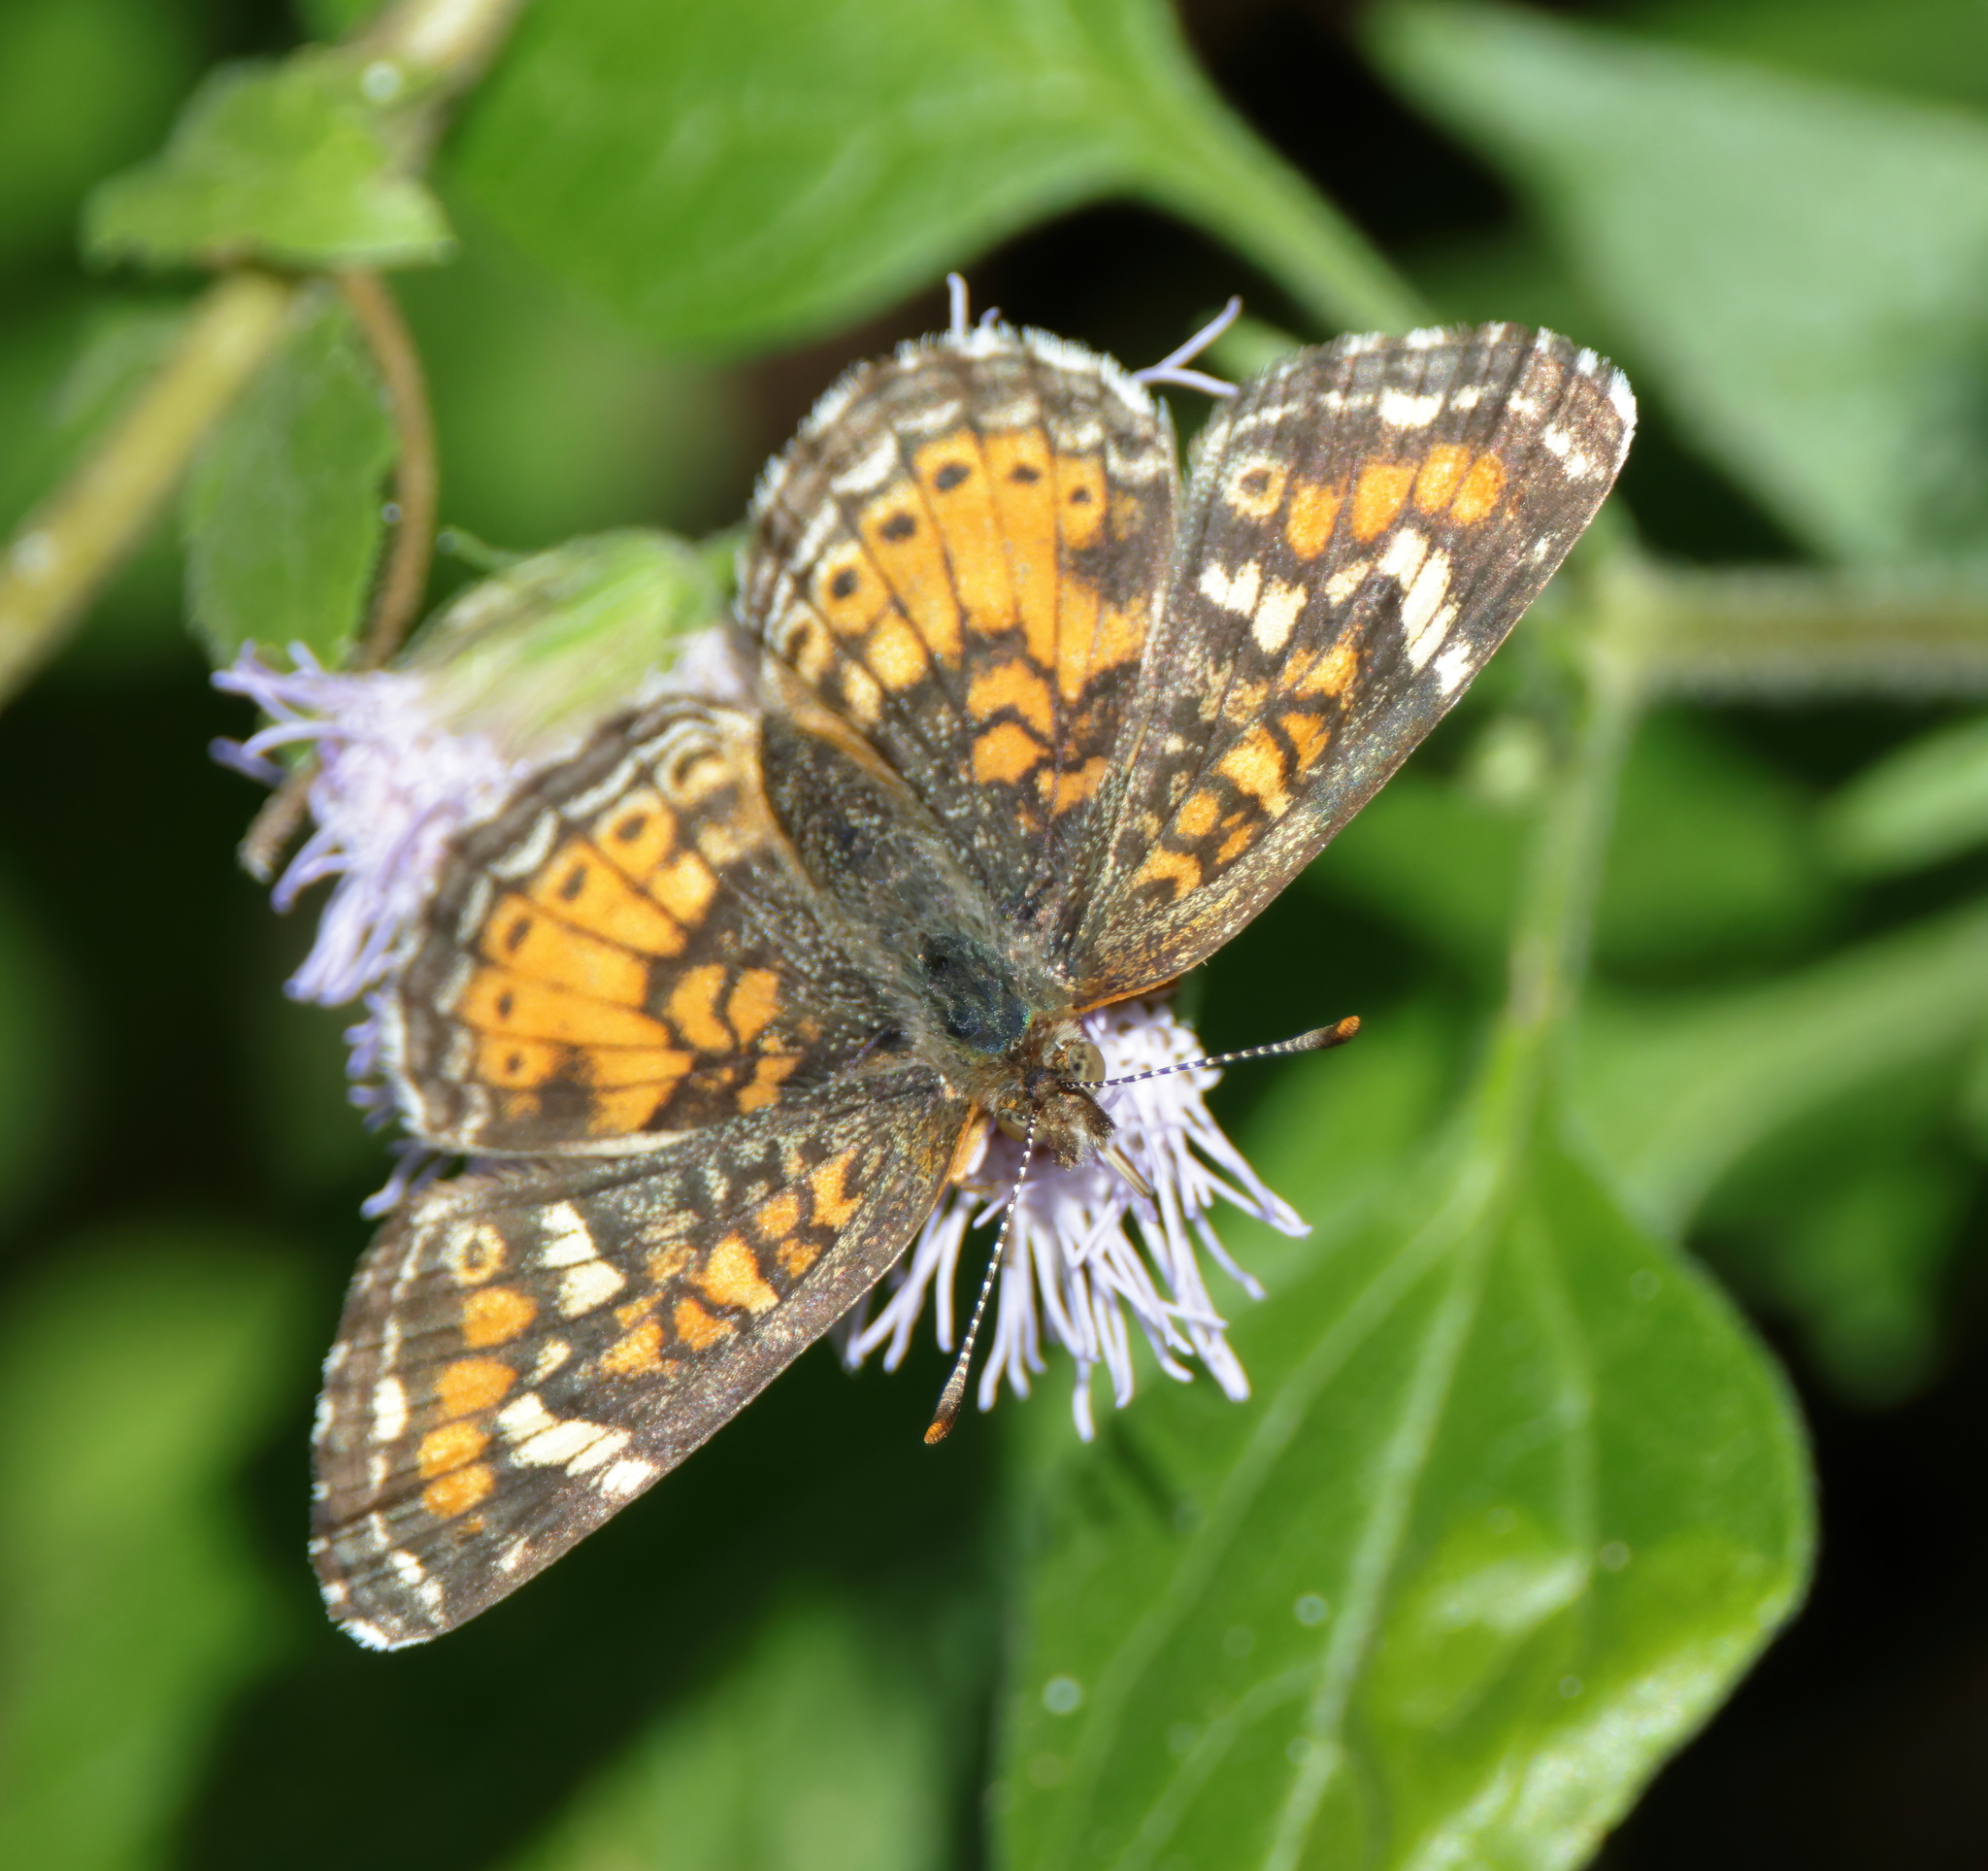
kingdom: Animalia
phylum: Arthropoda
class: Insecta
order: Lepidoptera
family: Nymphalidae
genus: Phyciodes
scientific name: Phyciodes phaon
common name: Phaon crescent
